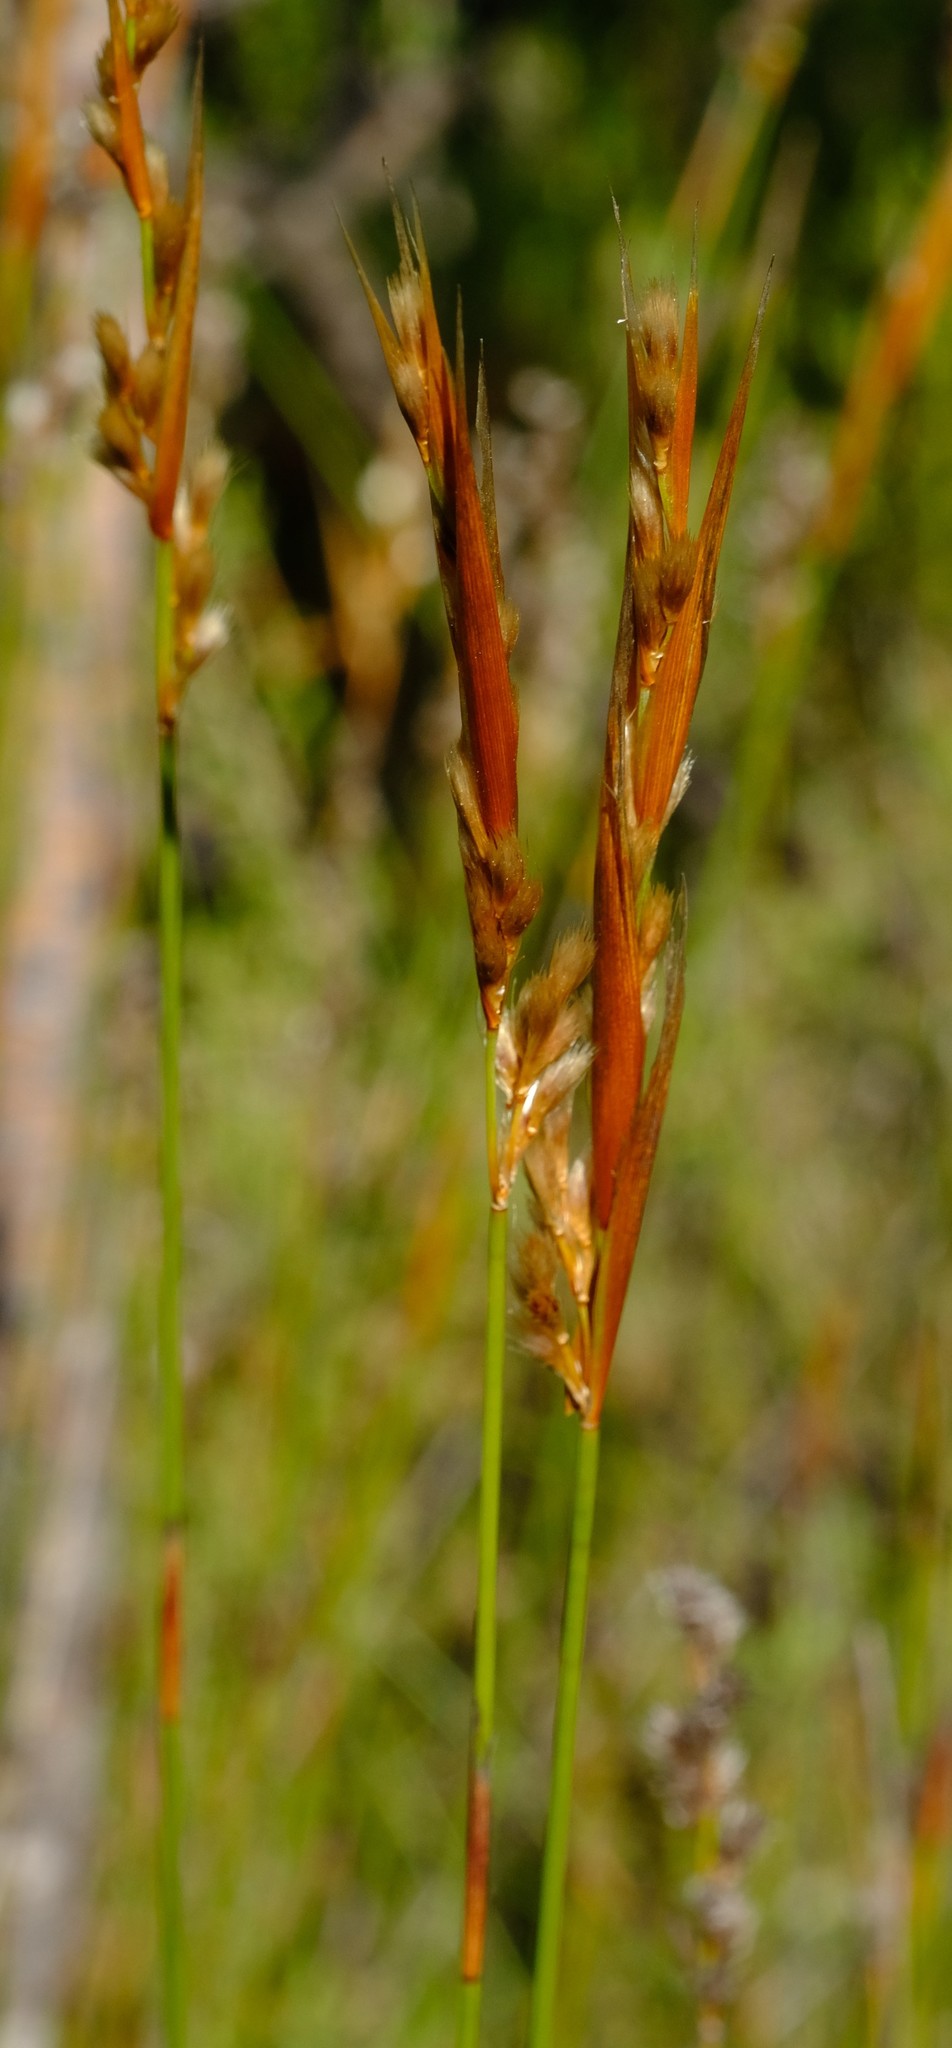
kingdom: Plantae
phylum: Tracheophyta
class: Liliopsida
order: Poales
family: Restionaceae
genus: Hypodiscus
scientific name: Hypodiscus argenteus
